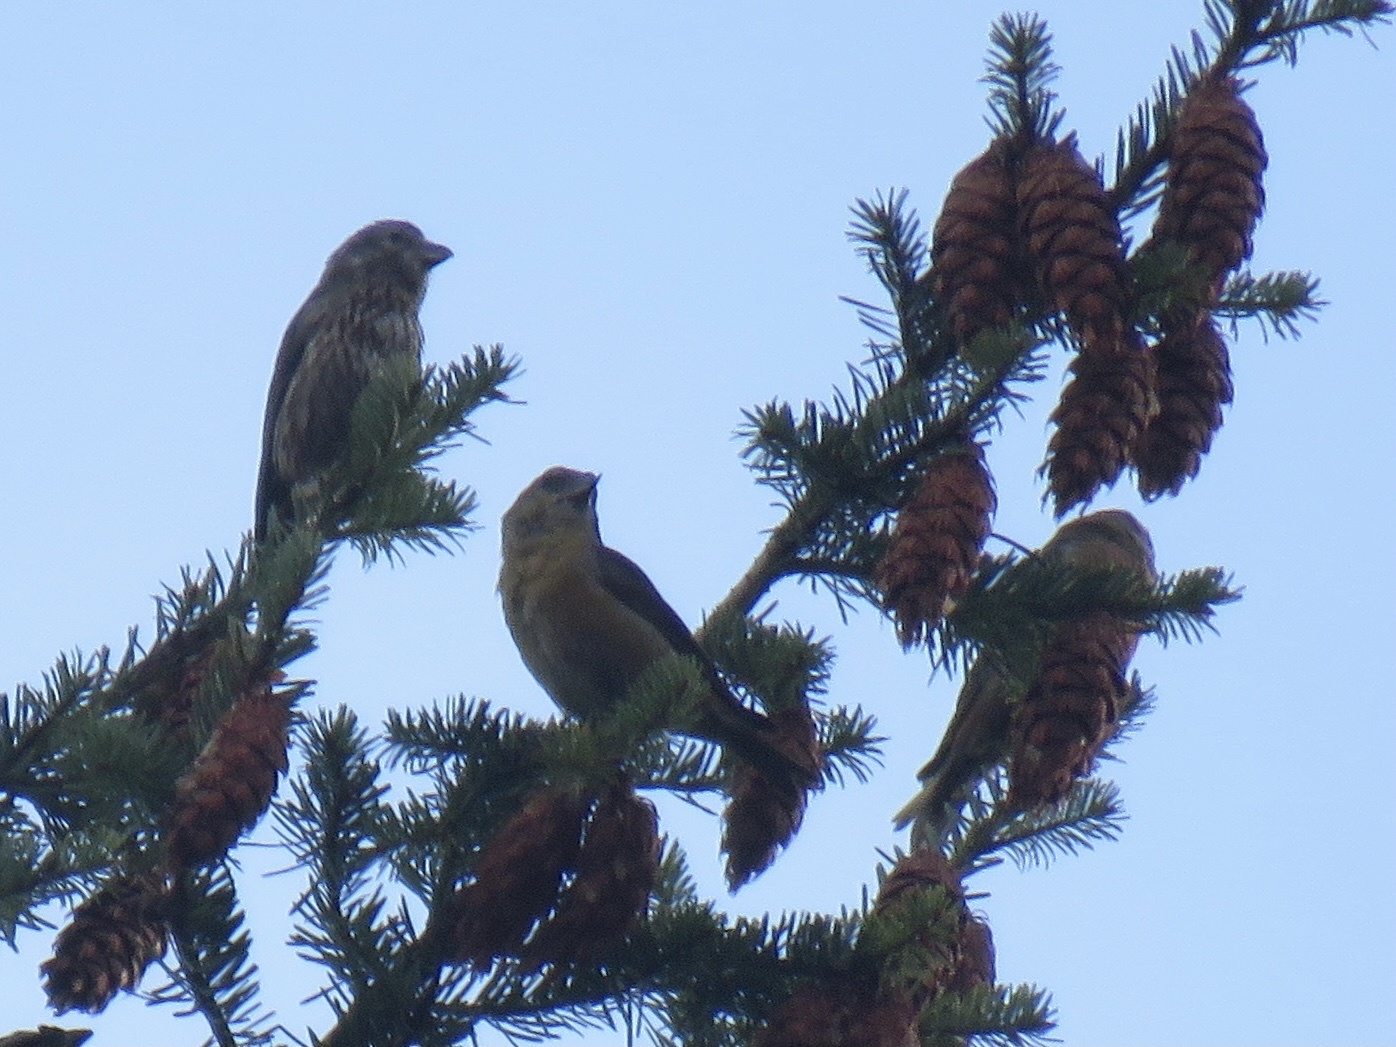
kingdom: Animalia
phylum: Chordata
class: Aves
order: Passeriformes
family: Fringillidae
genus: Loxia
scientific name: Loxia curvirostra
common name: Red crossbill
